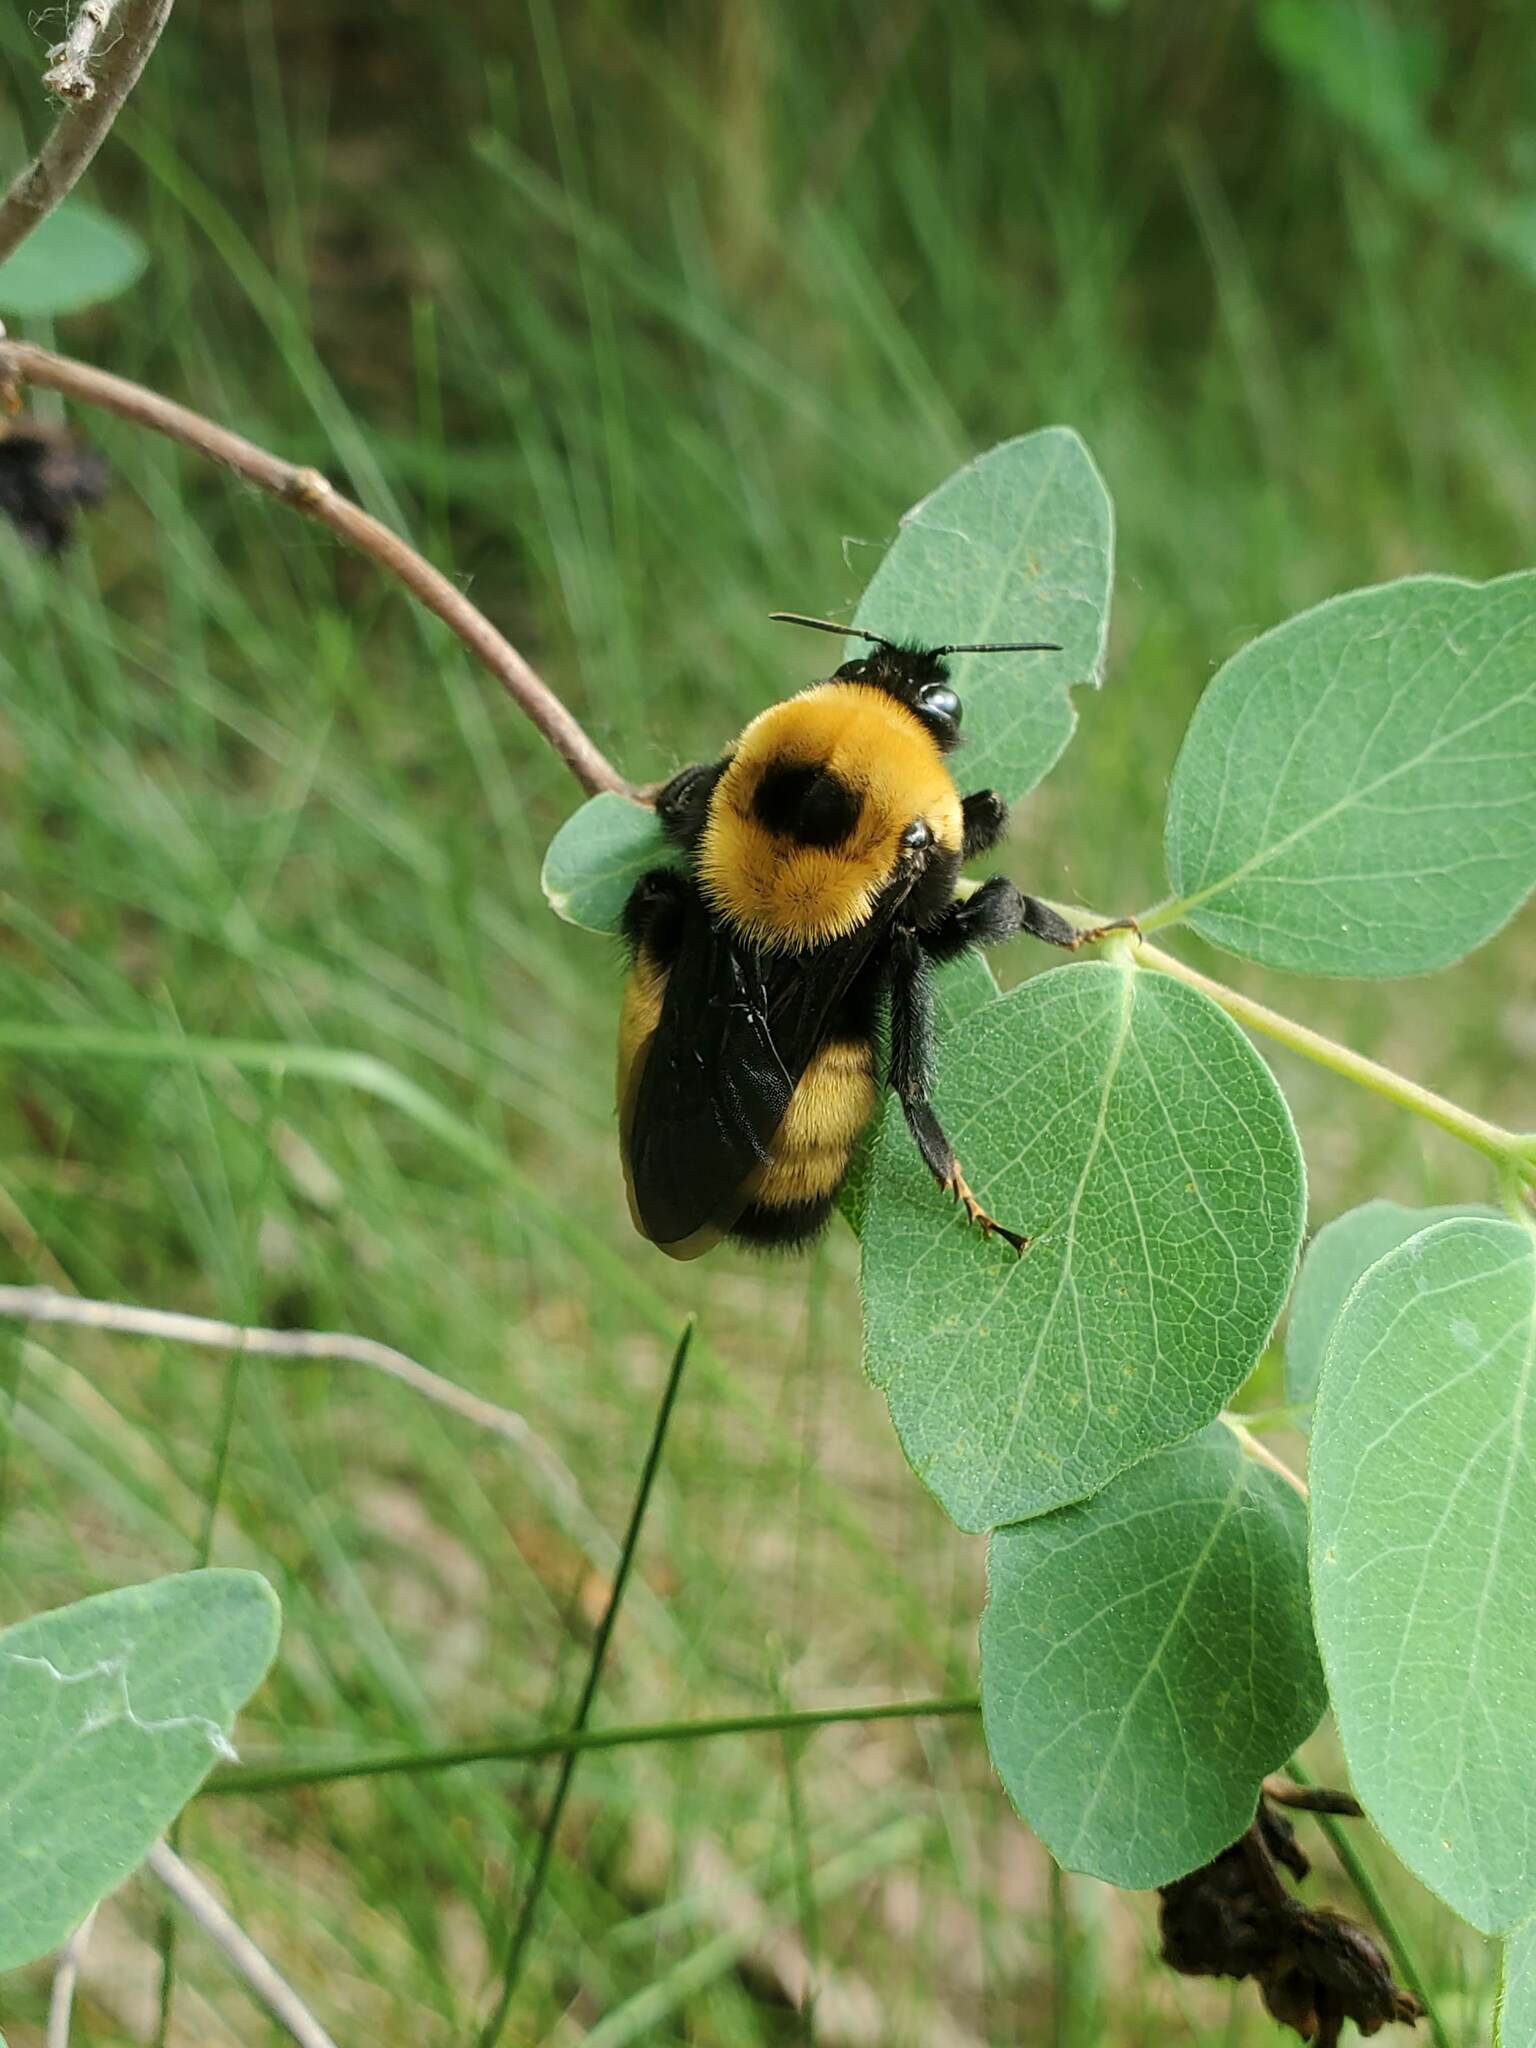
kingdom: Animalia
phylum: Arthropoda
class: Insecta
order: Hymenoptera
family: Apidae
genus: Bombus
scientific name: Bombus nevadensis
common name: Nevada bumble bee
